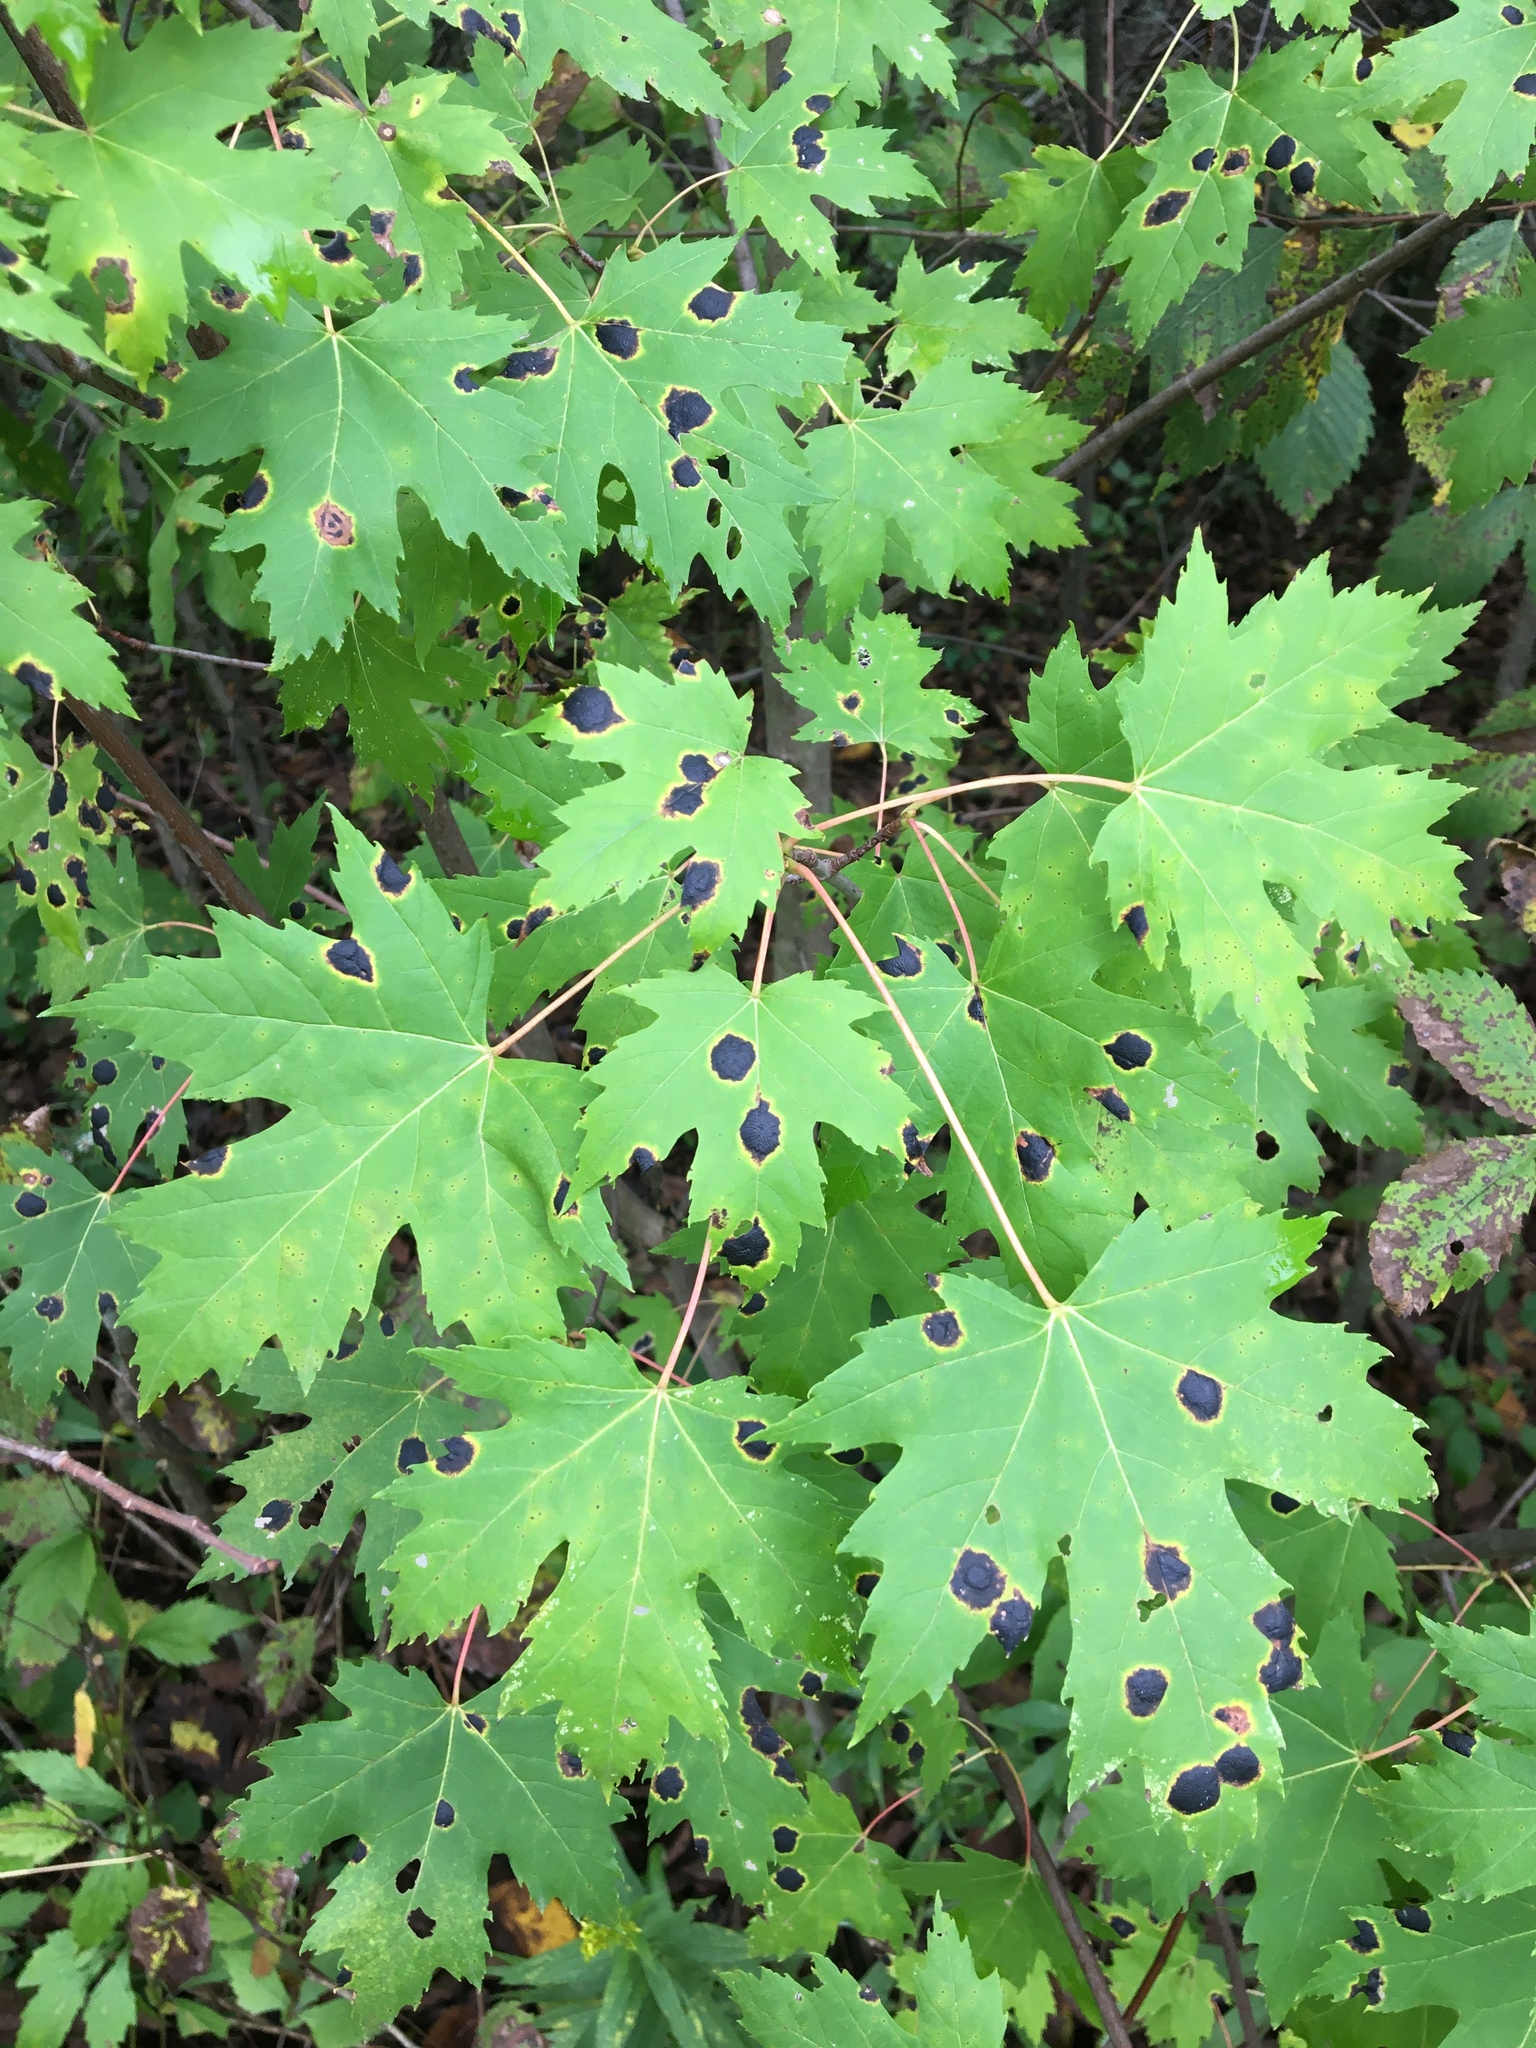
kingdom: Plantae
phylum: Tracheophyta
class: Magnoliopsida
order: Sapindales
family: Sapindaceae
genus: Acer
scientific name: Acer freemanii
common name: Freeman maple
